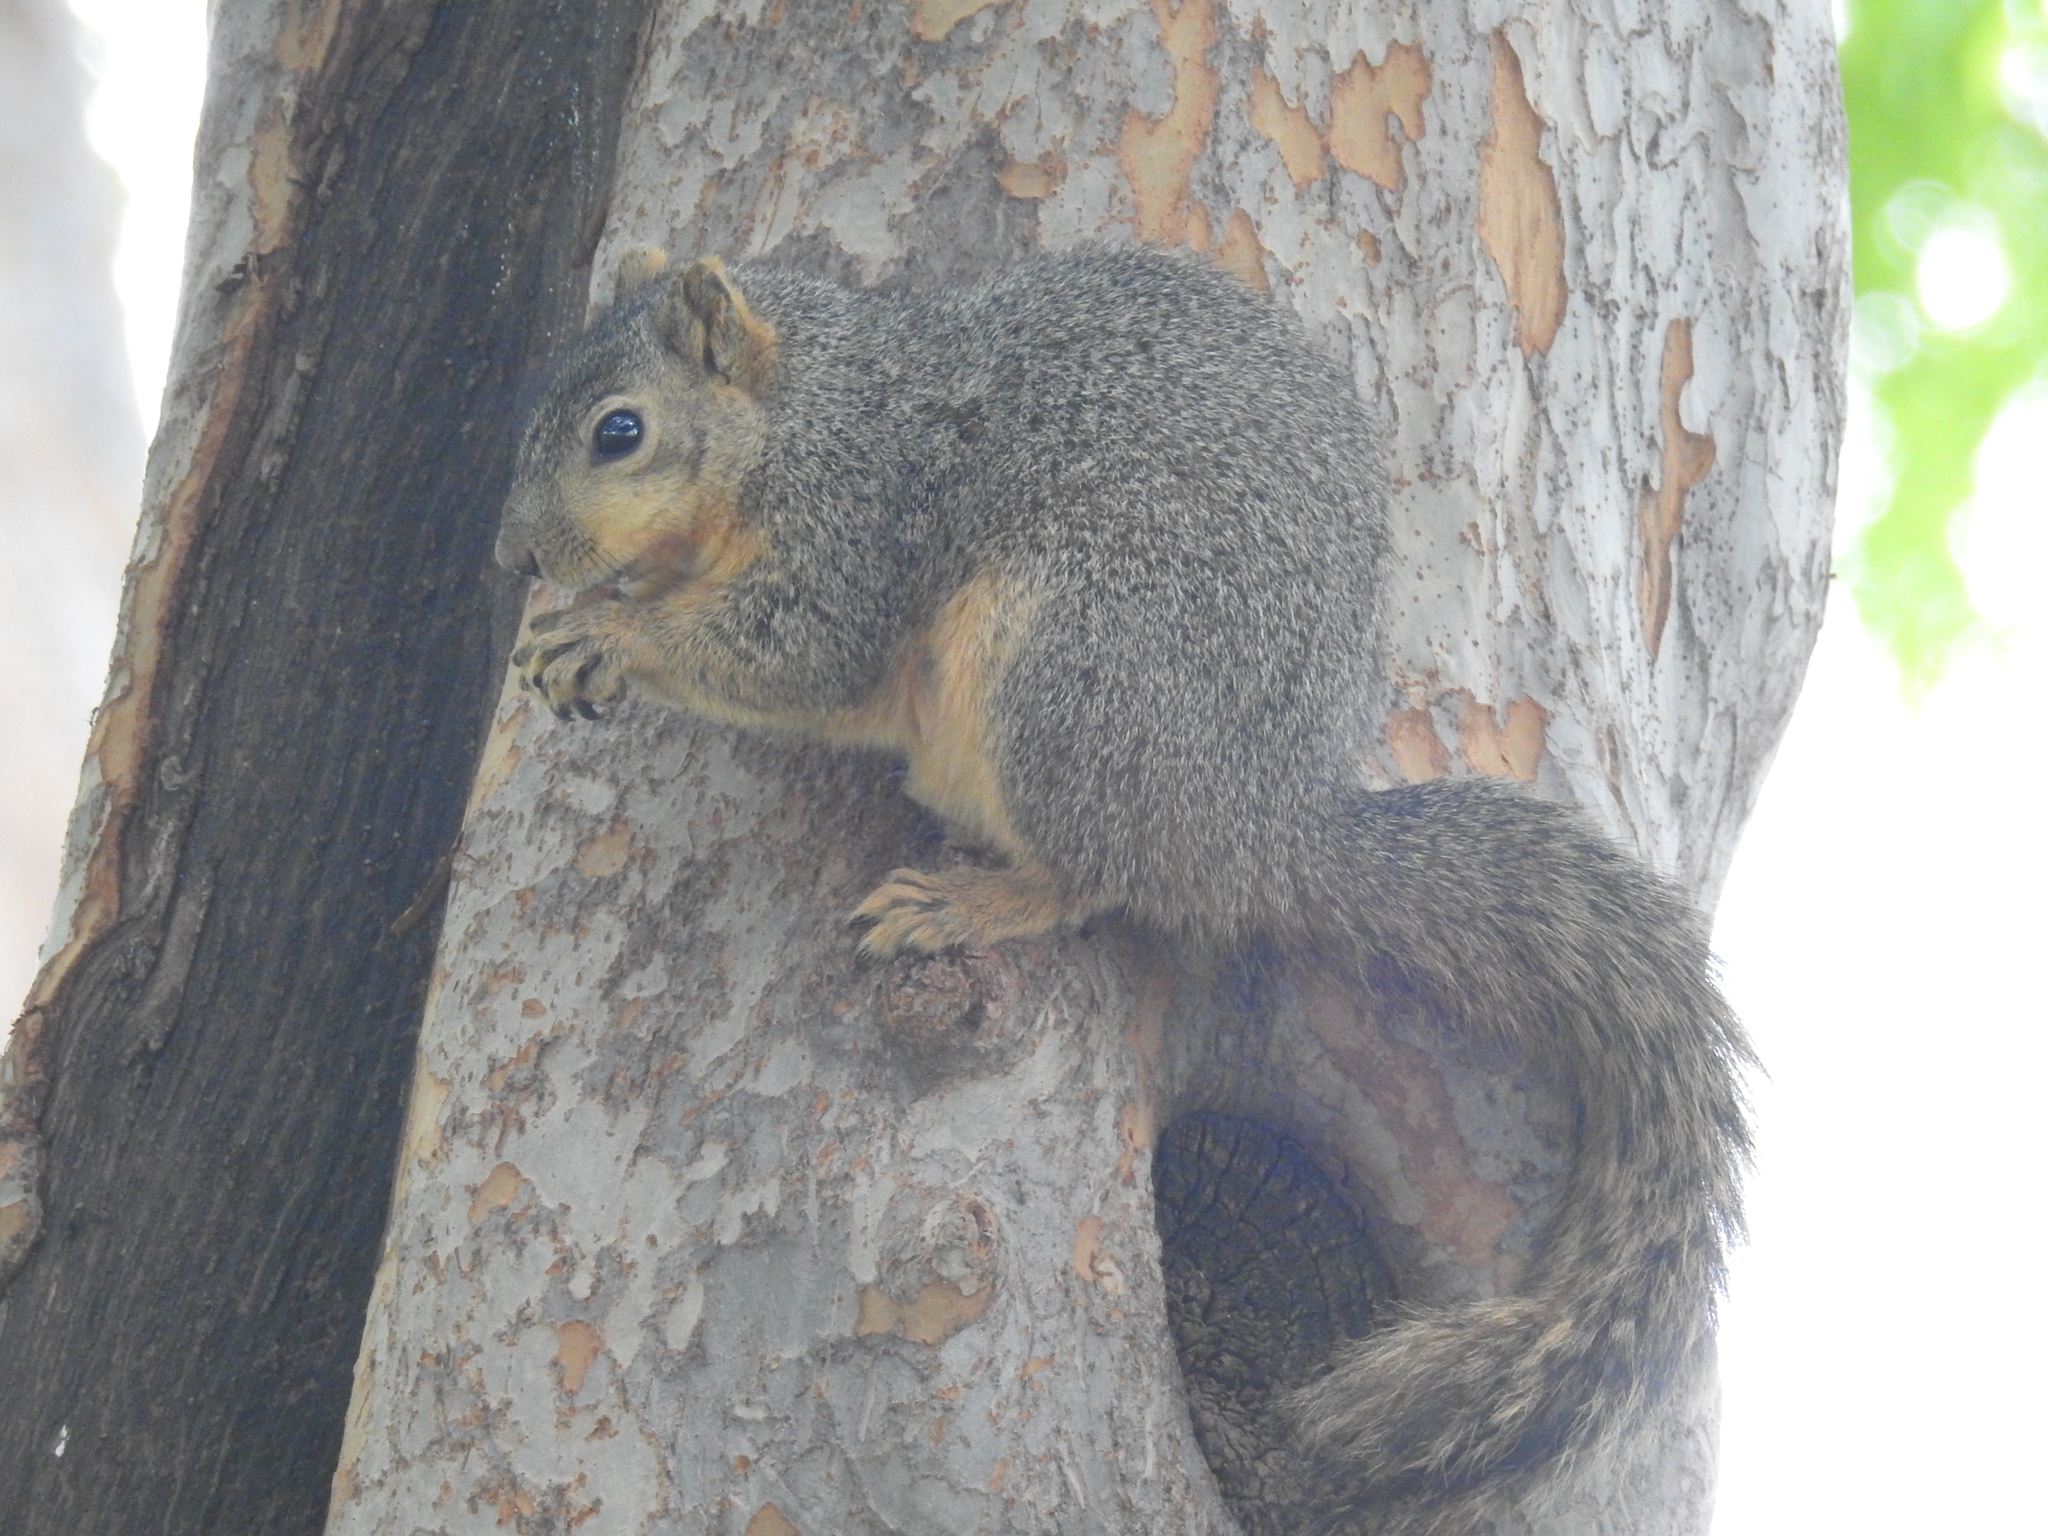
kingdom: Animalia
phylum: Chordata
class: Mammalia
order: Rodentia
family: Sciuridae
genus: Sciurus
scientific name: Sciurus niger
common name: Fox squirrel
